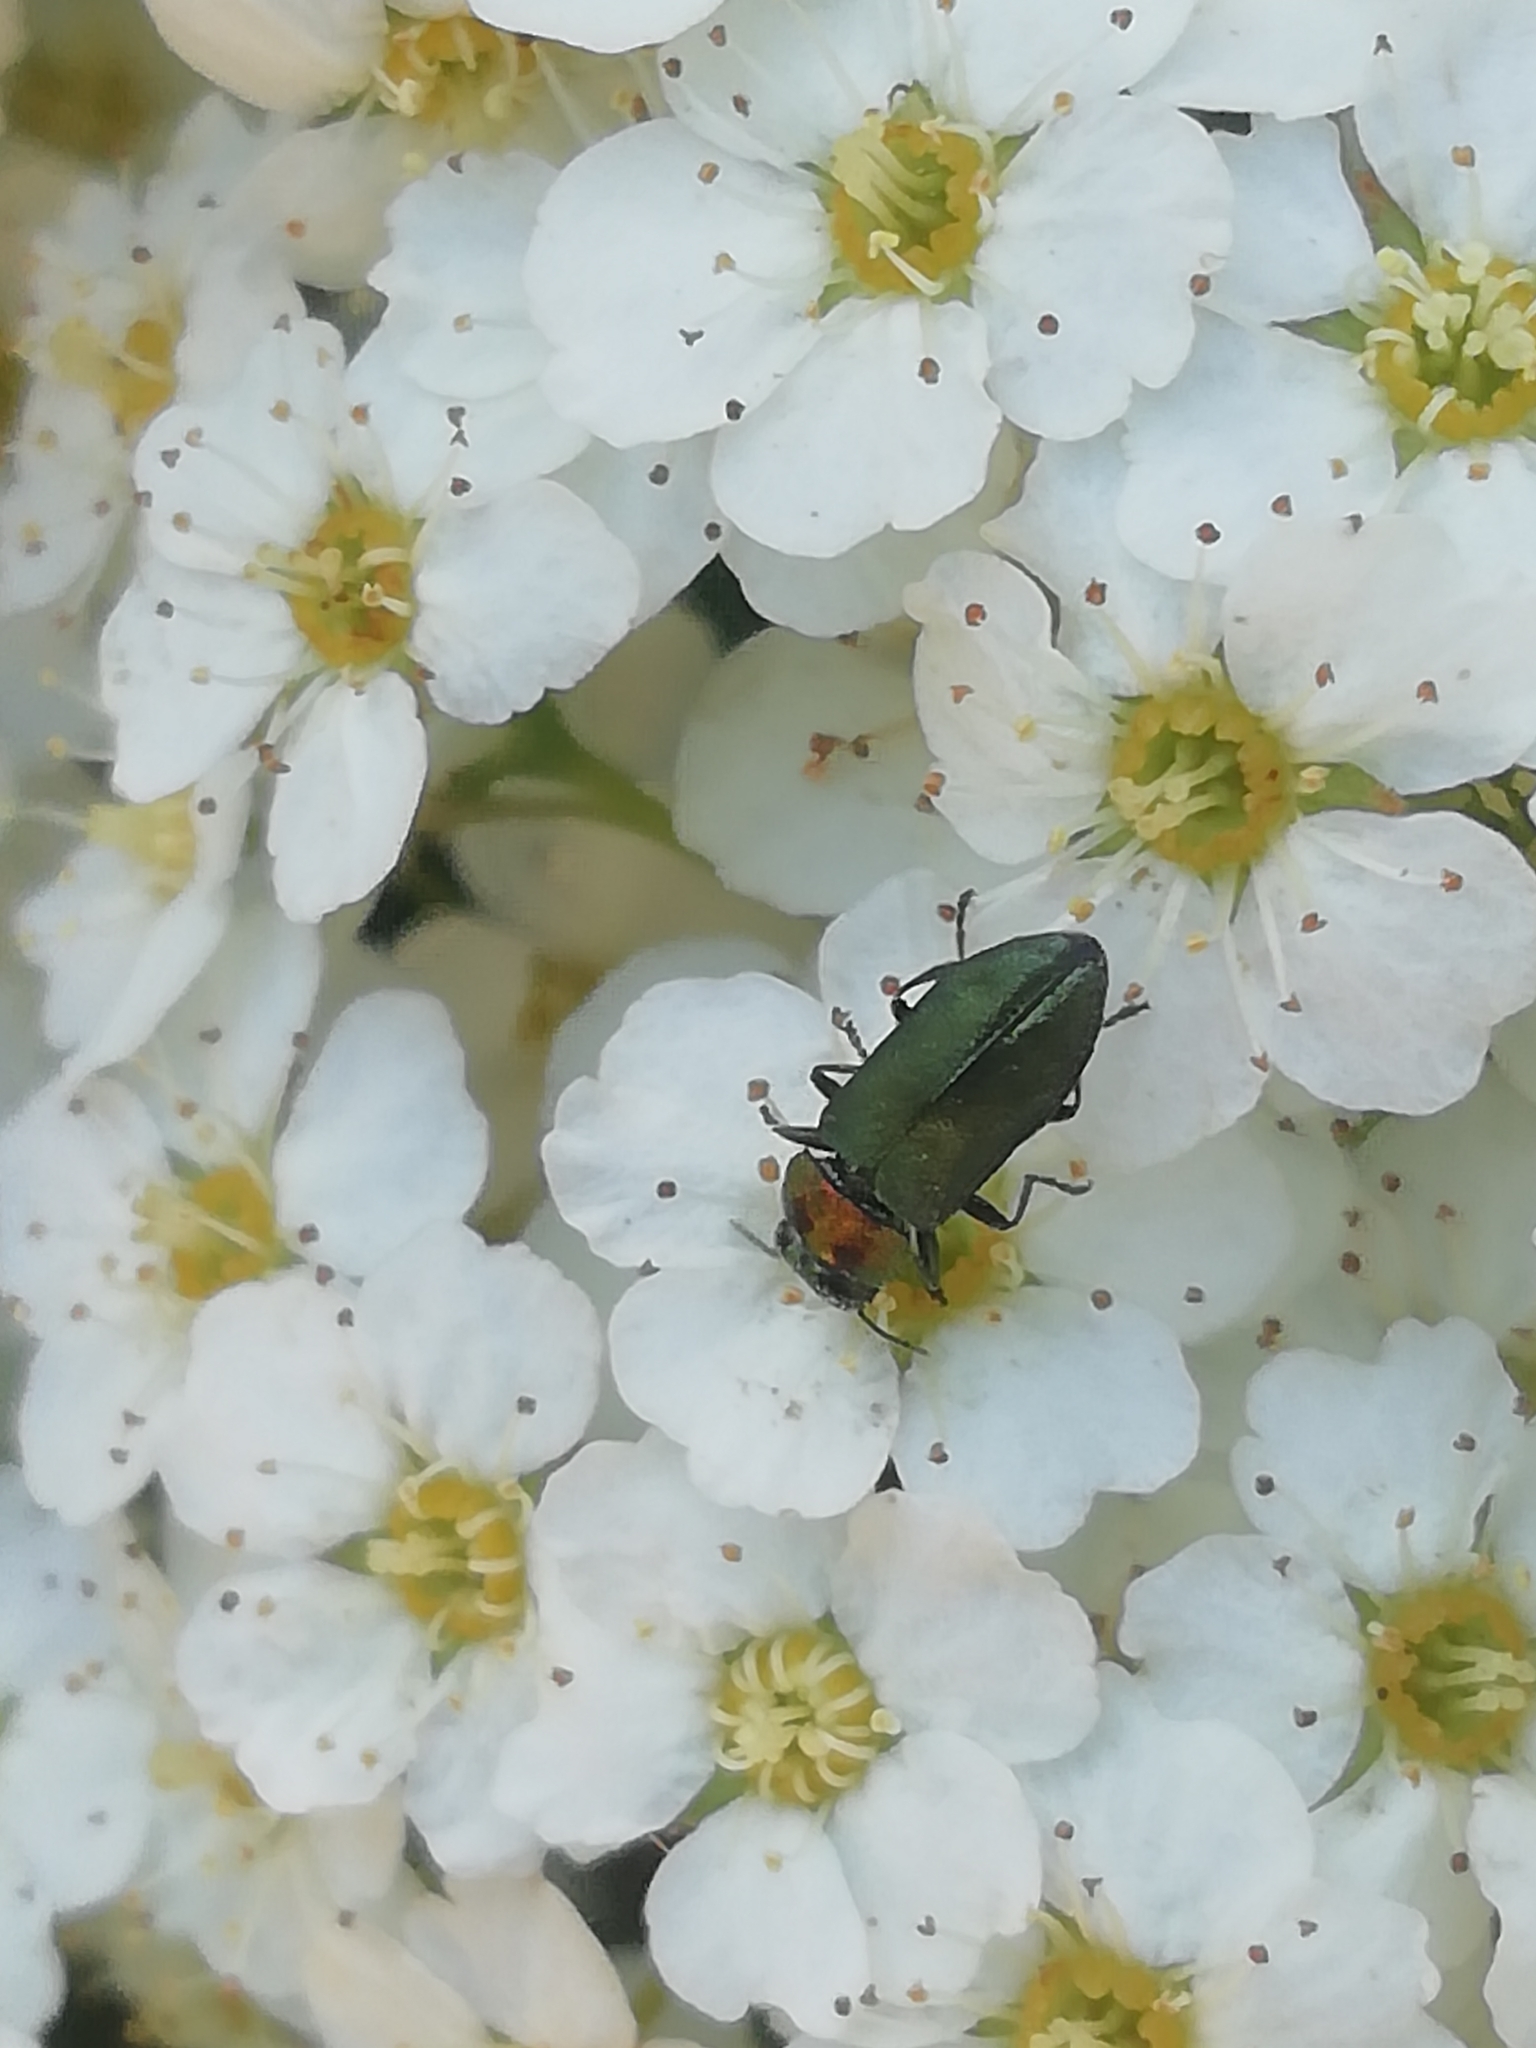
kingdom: Animalia
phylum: Arthropoda
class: Insecta
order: Coleoptera
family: Buprestidae
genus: Anthaxia
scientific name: Anthaxia nitidula
